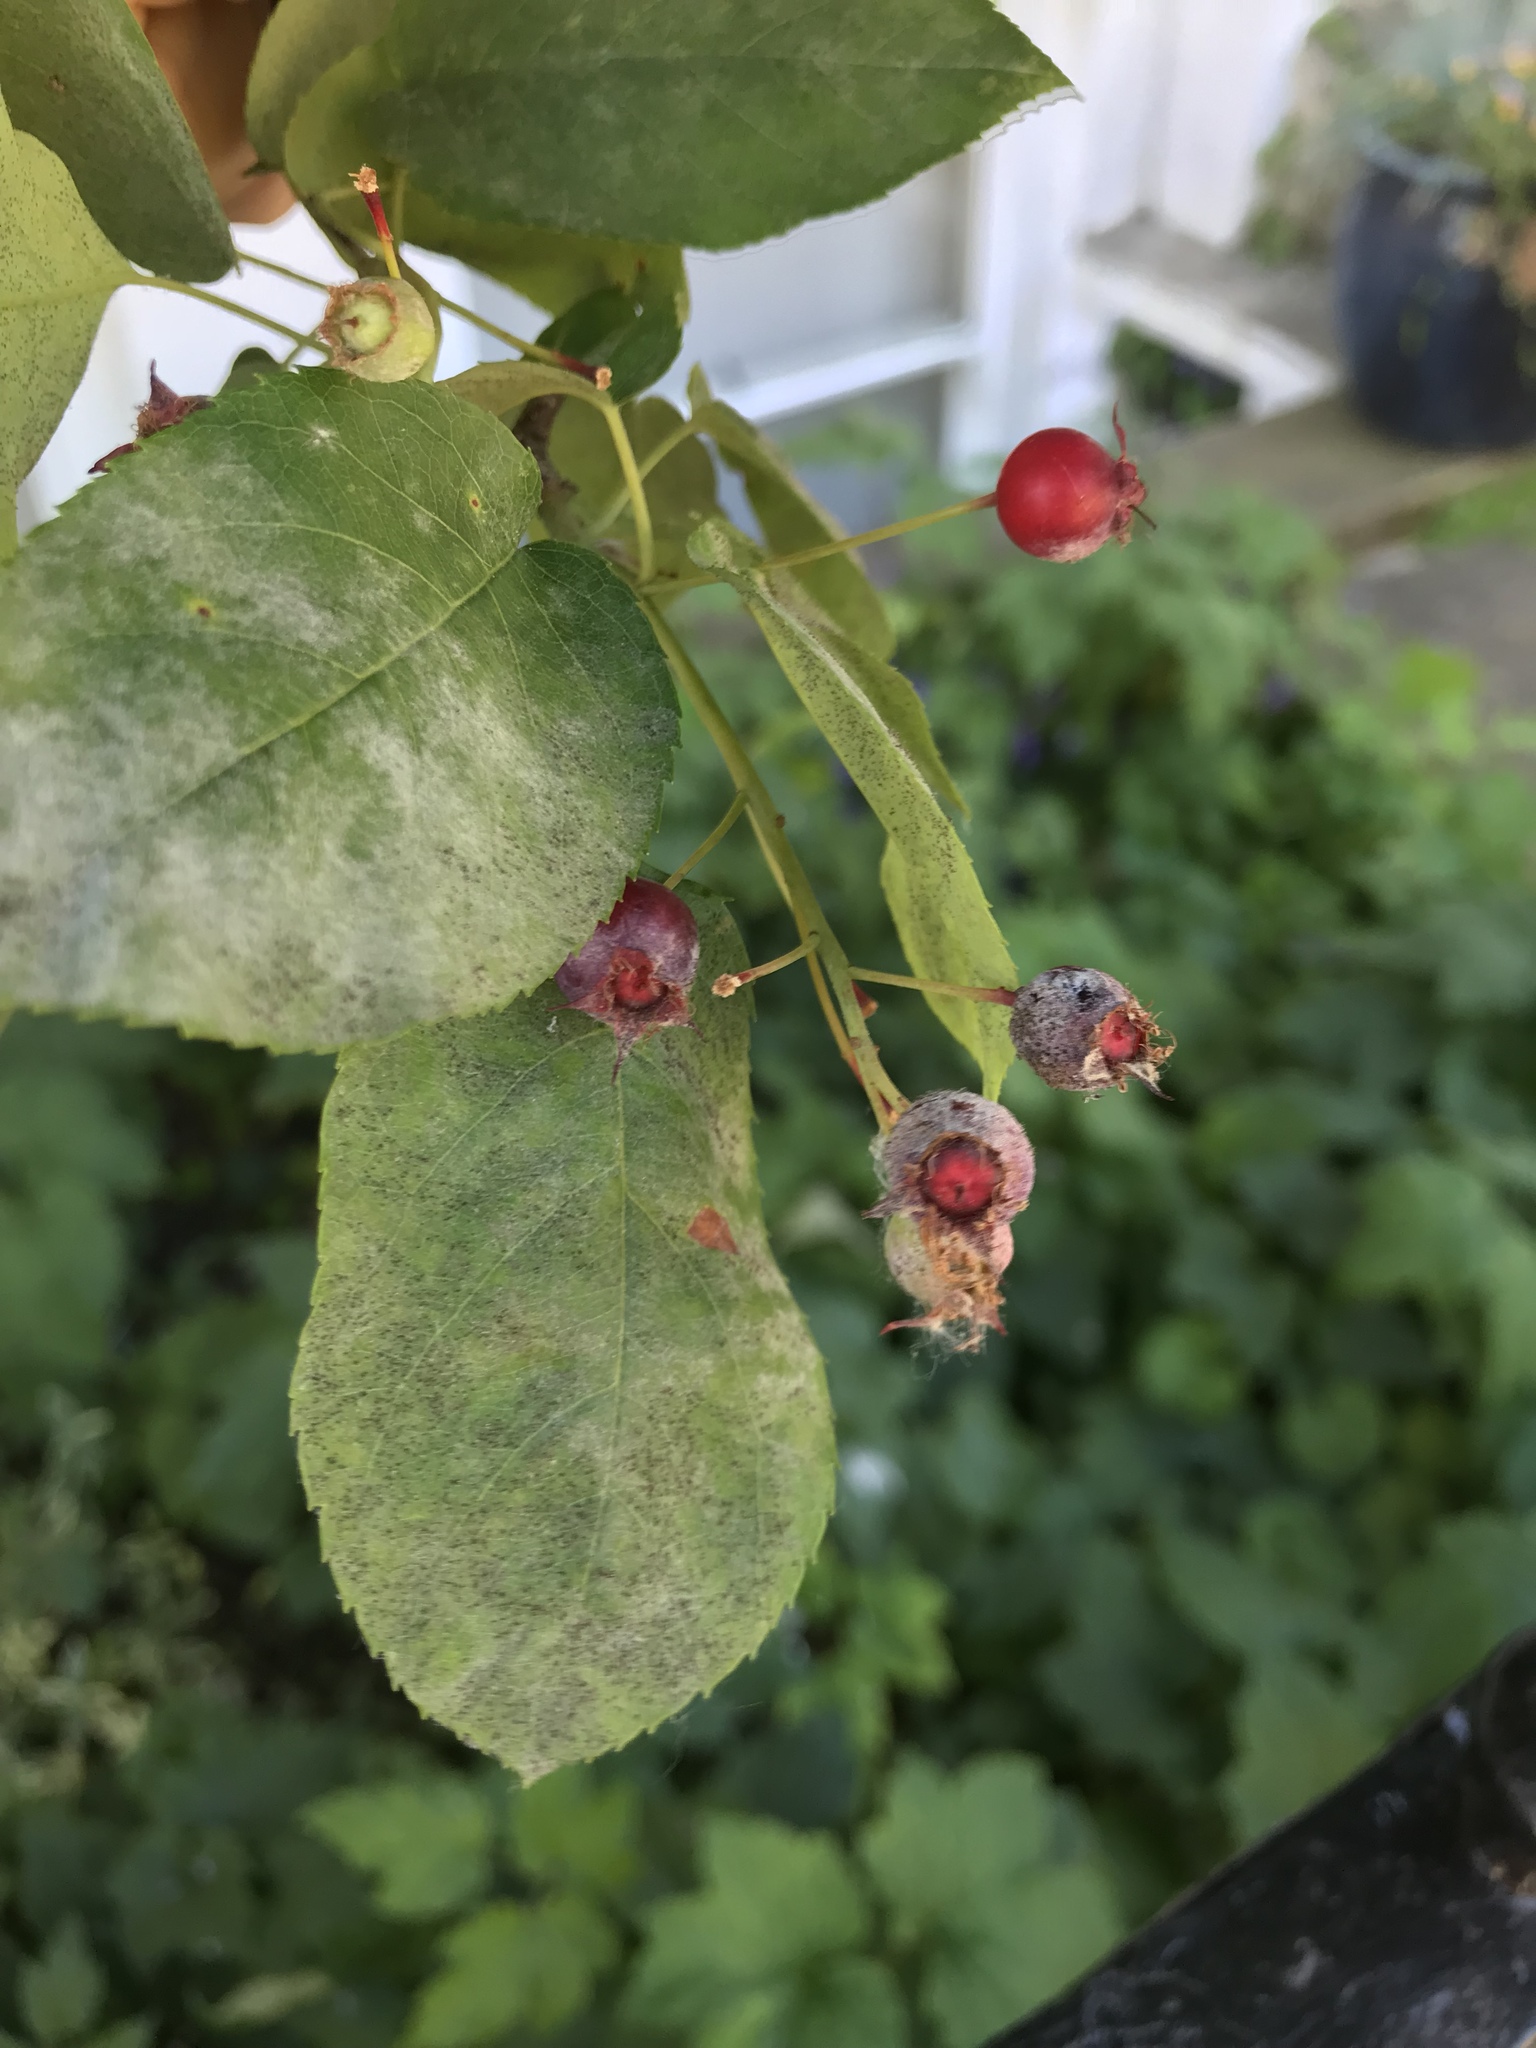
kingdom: Plantae
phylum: Tracheophyta
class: Magnoliopsida
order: Rosales
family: Rosaceae
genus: Amelanchier
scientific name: Amelanchier lamarckii
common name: Juneberry
